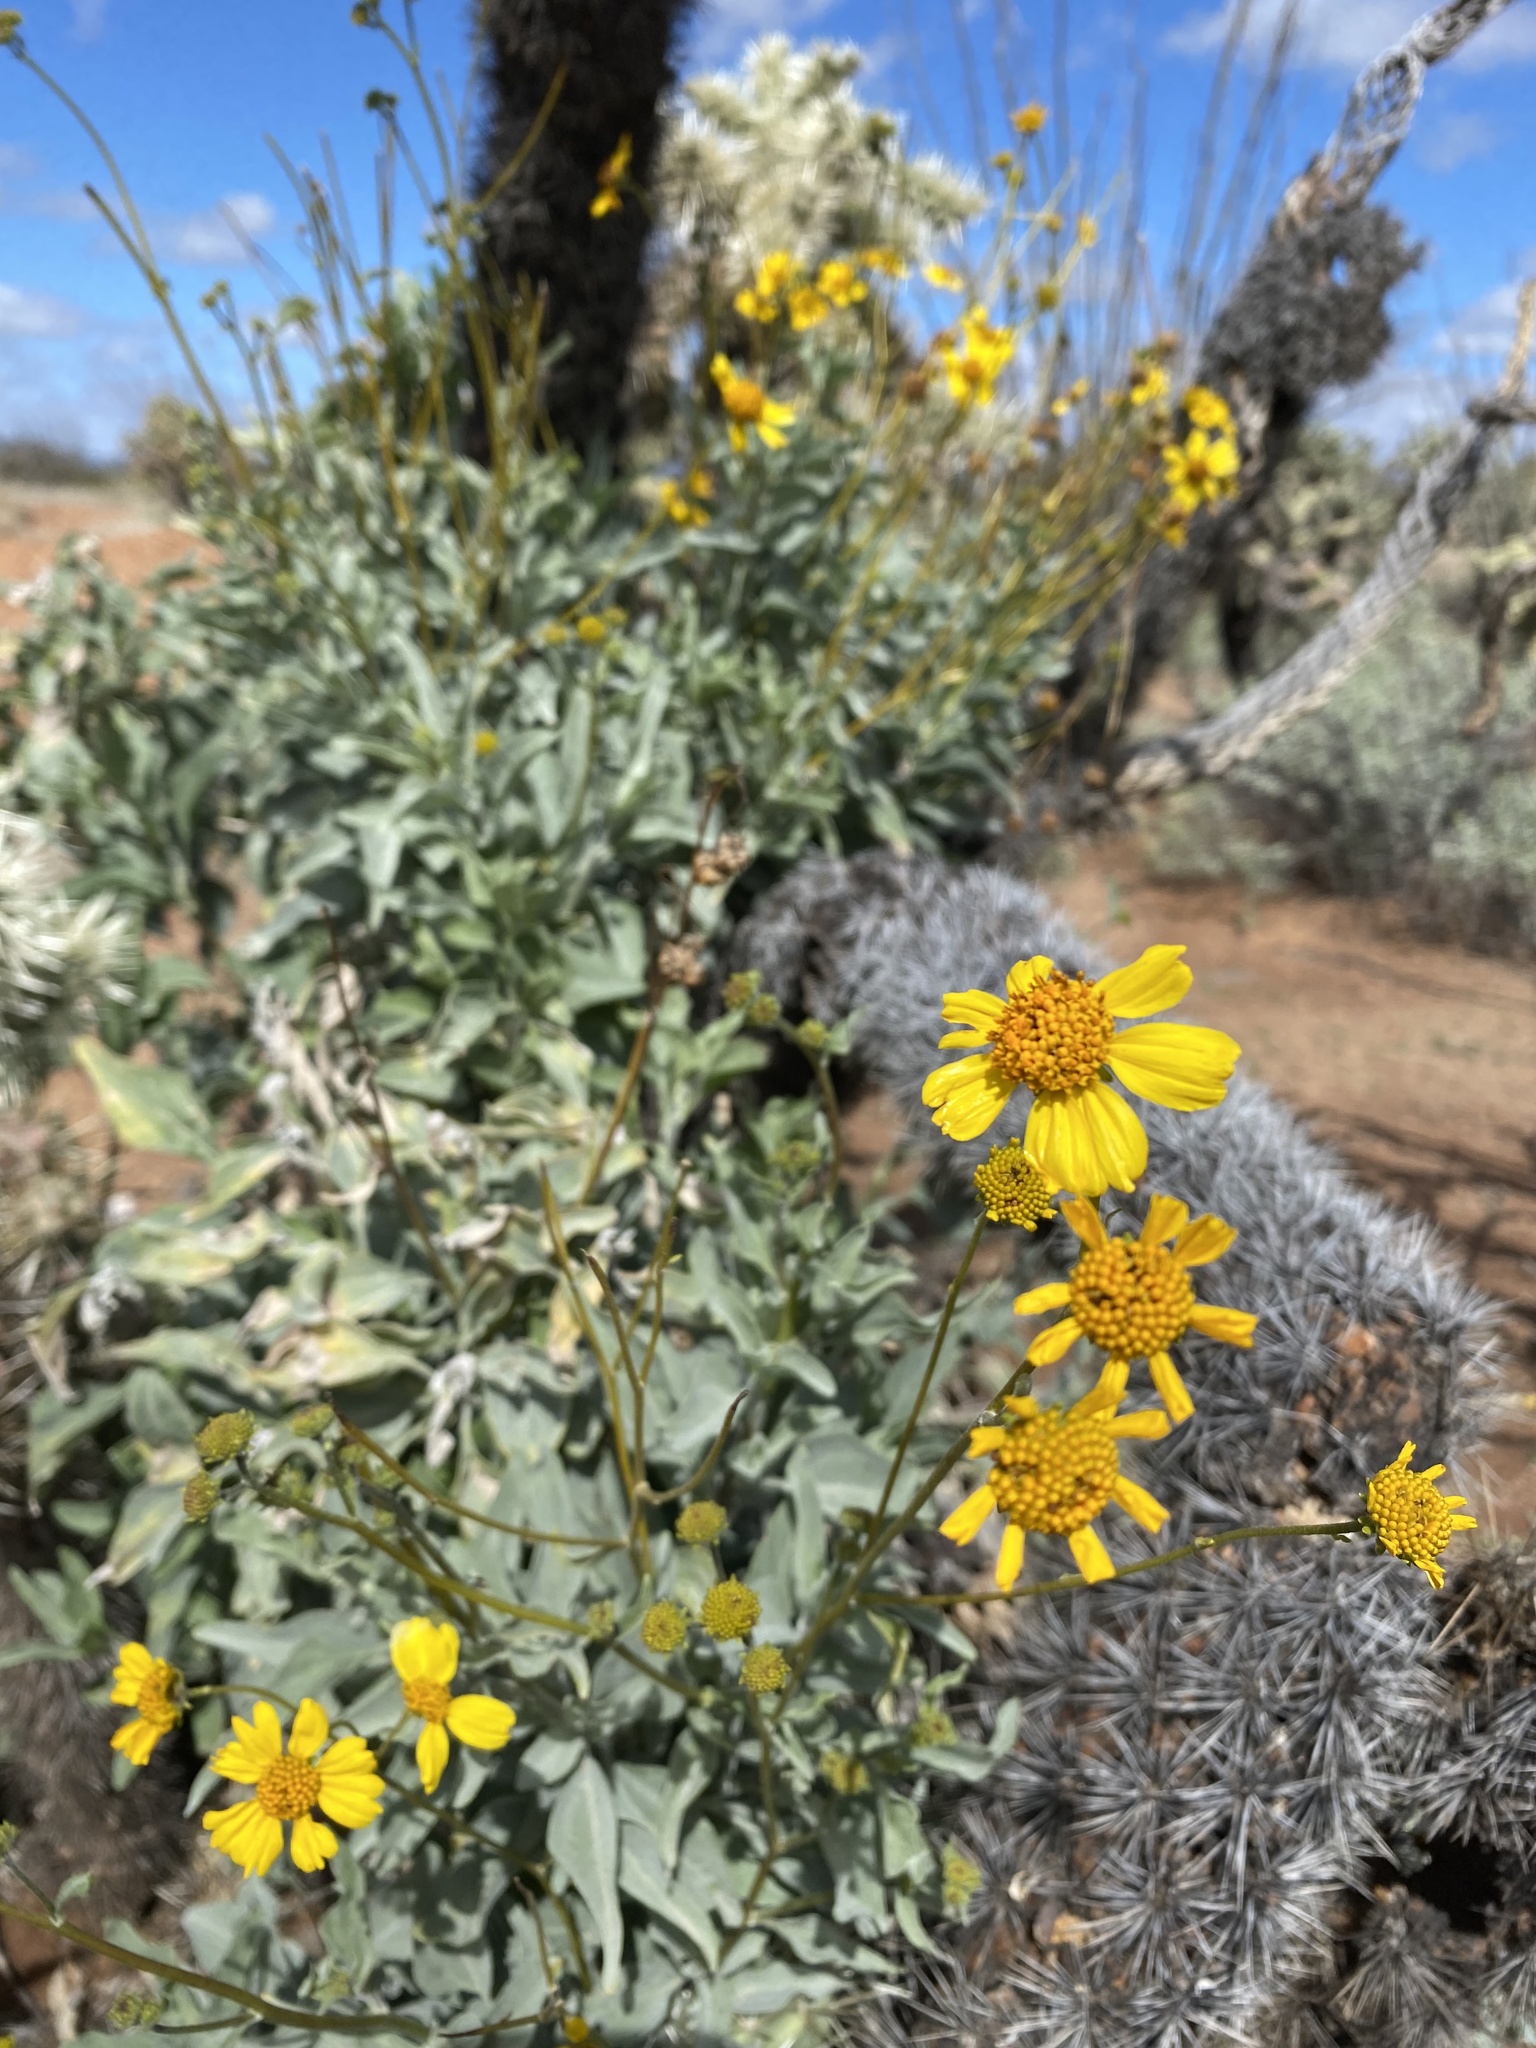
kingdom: Plantae
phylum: Tracheophyta
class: Magnoliopsida
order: Asterales
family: Asteraceae
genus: Encelia
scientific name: Encelia farinosa
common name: Brittlebush
